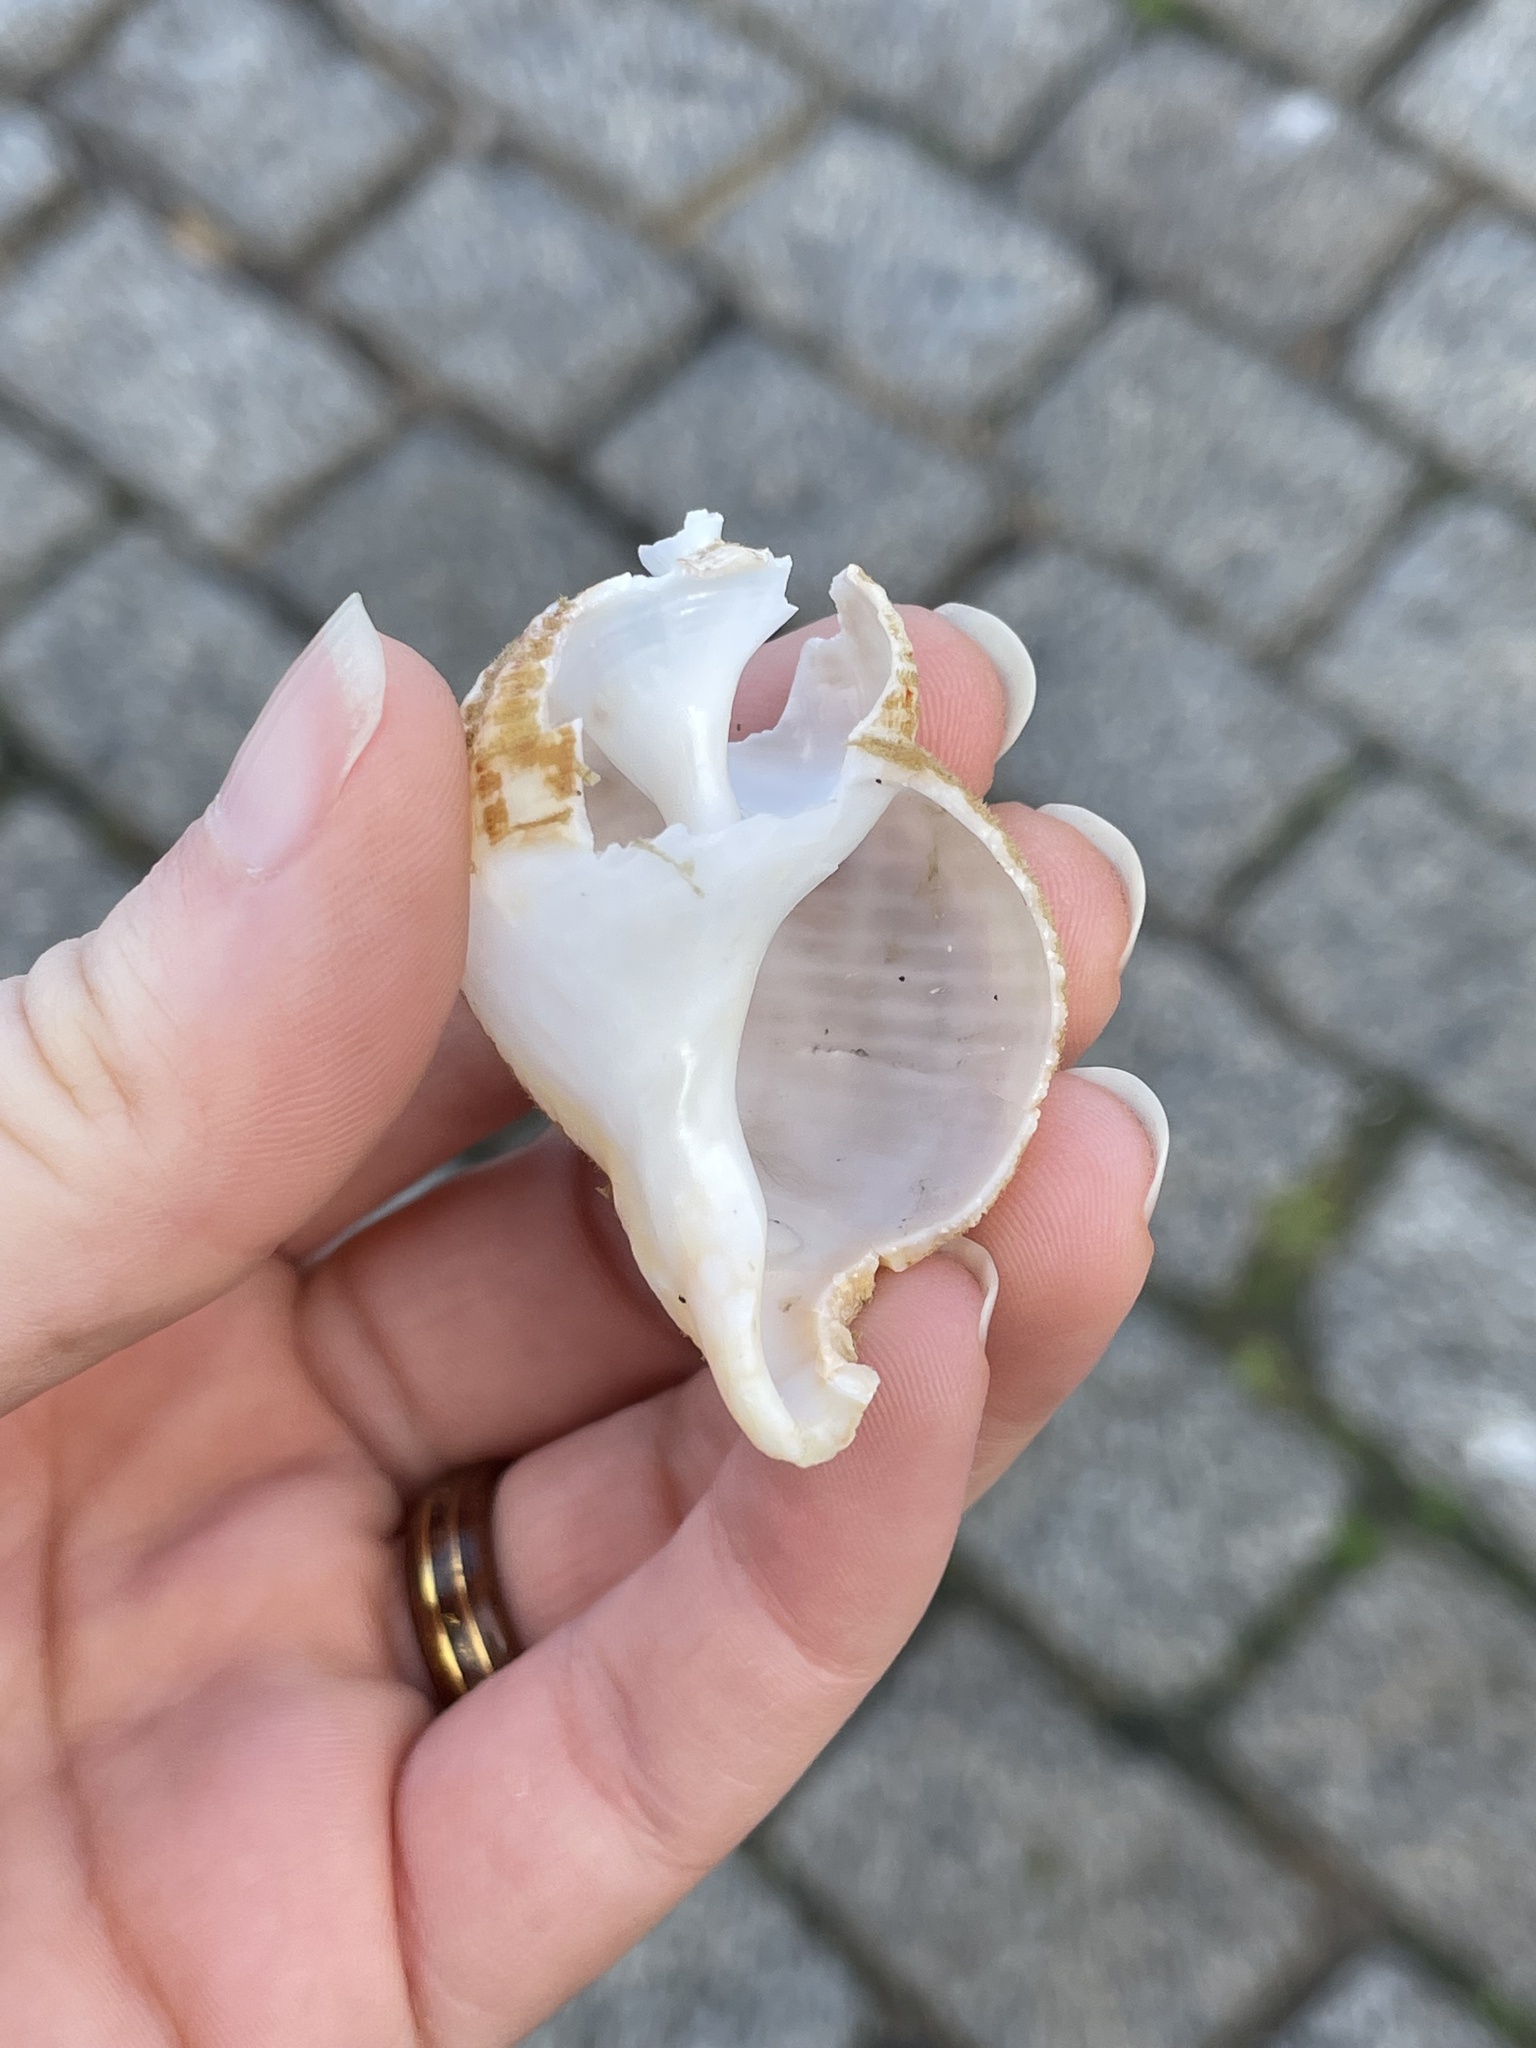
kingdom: Animalia
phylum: Mollusca
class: Gastropoda
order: Neogastropoda
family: Buccinidae
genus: Buccinum
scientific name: Buccinum undatum
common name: Common whelk
